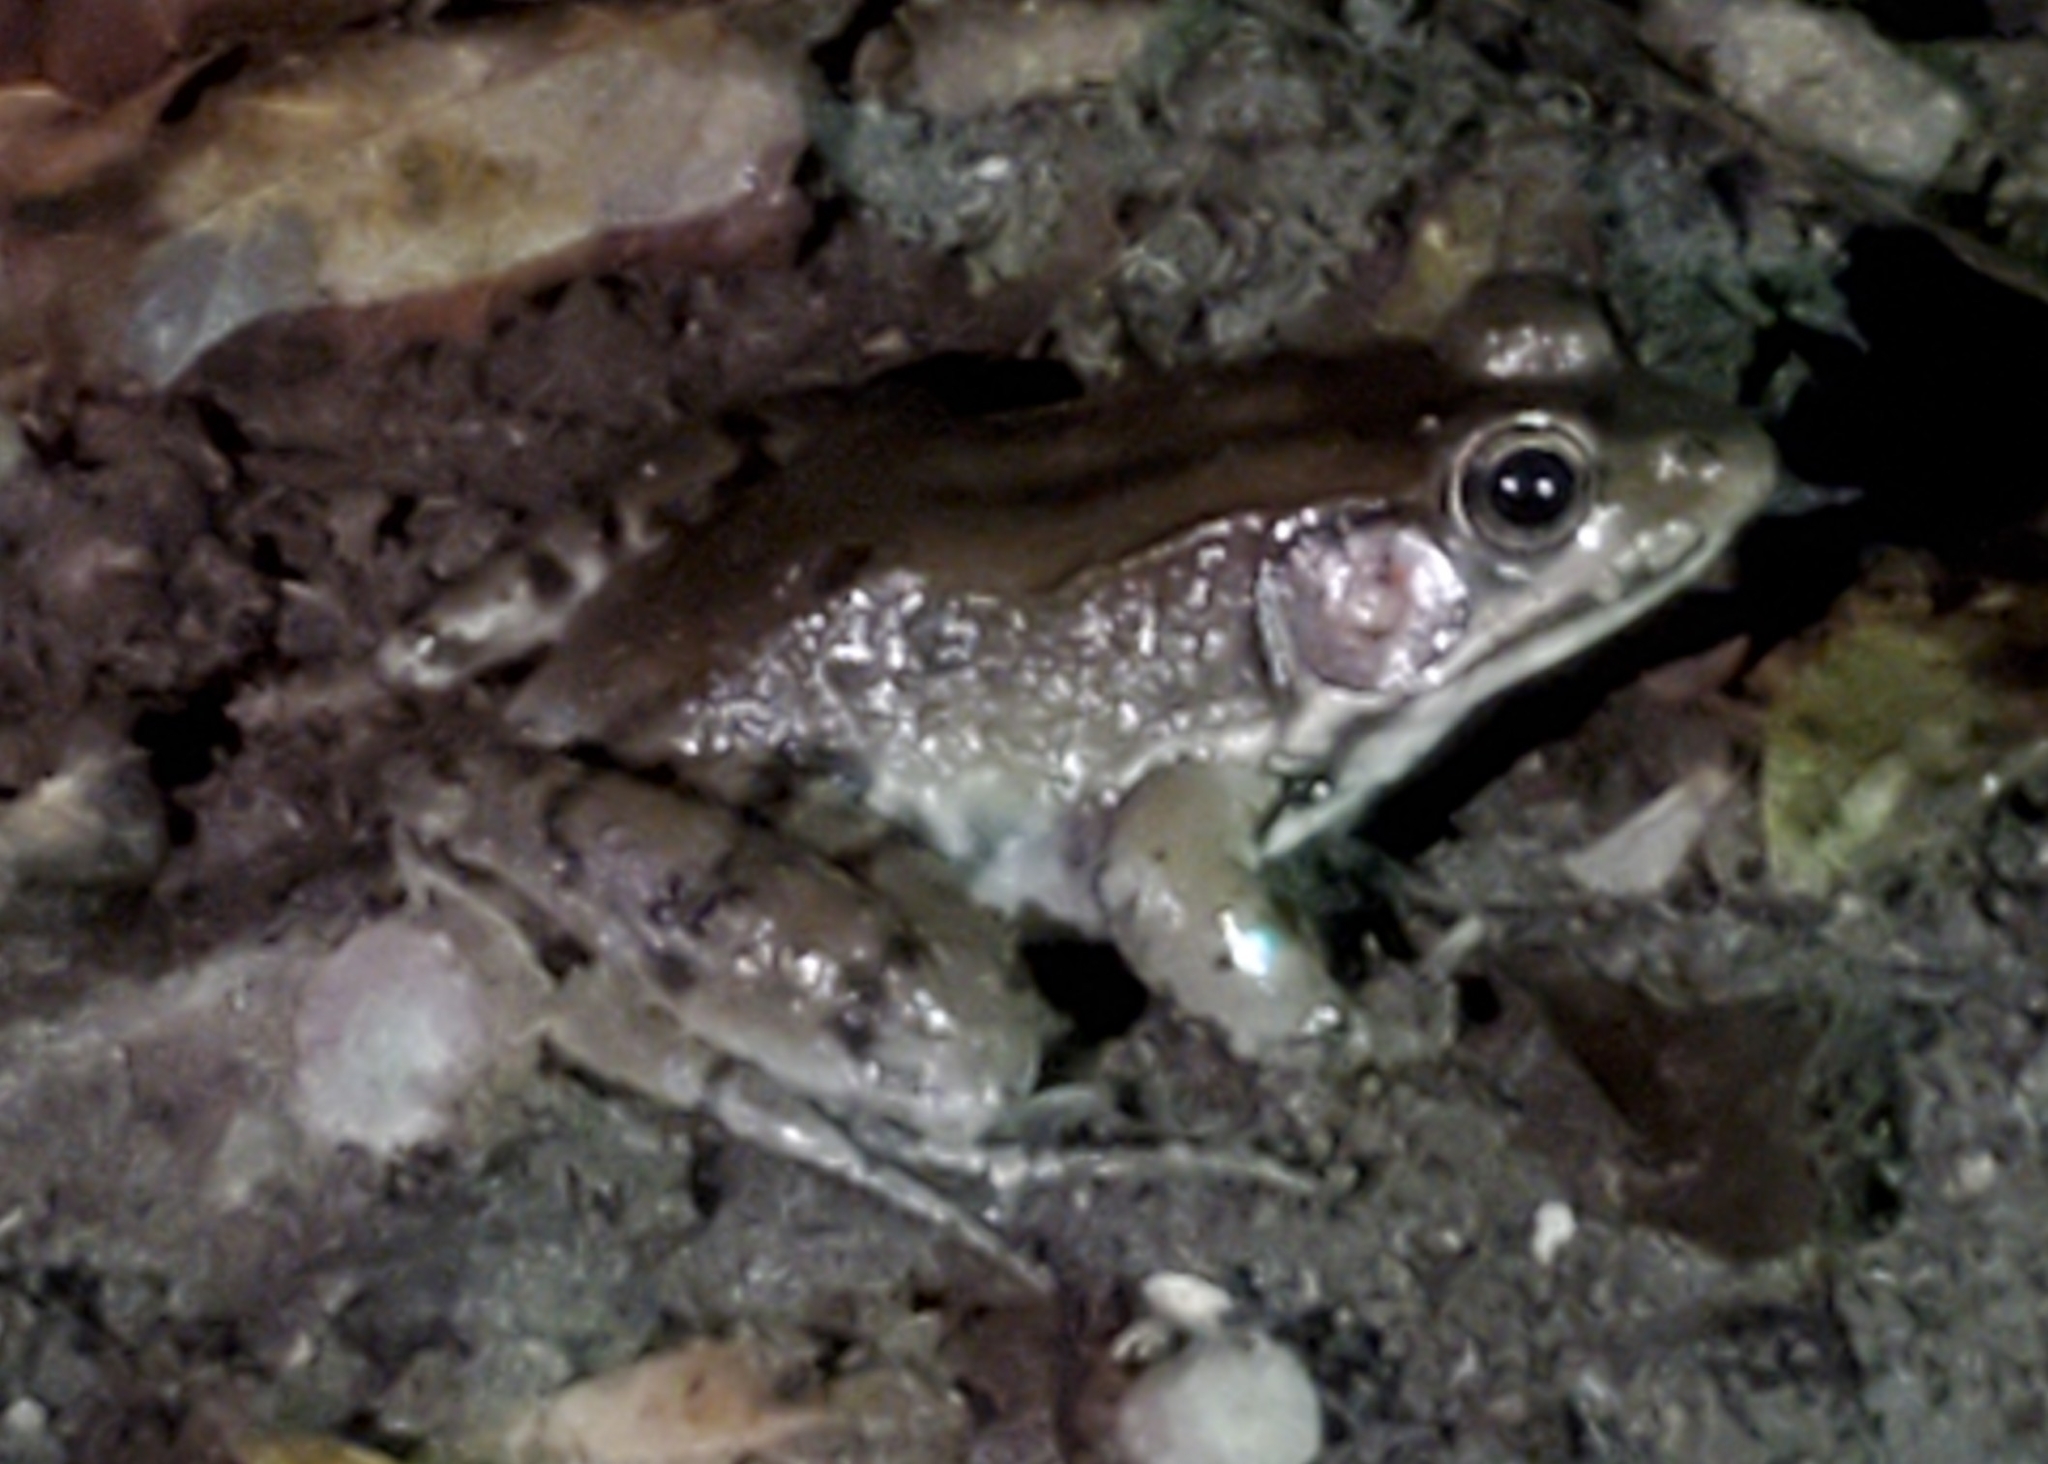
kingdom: Animalia
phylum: Chordata
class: Amphibia
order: Anura
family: Ranidae
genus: Lithobates
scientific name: Lithobates clamitans
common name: Green frog
